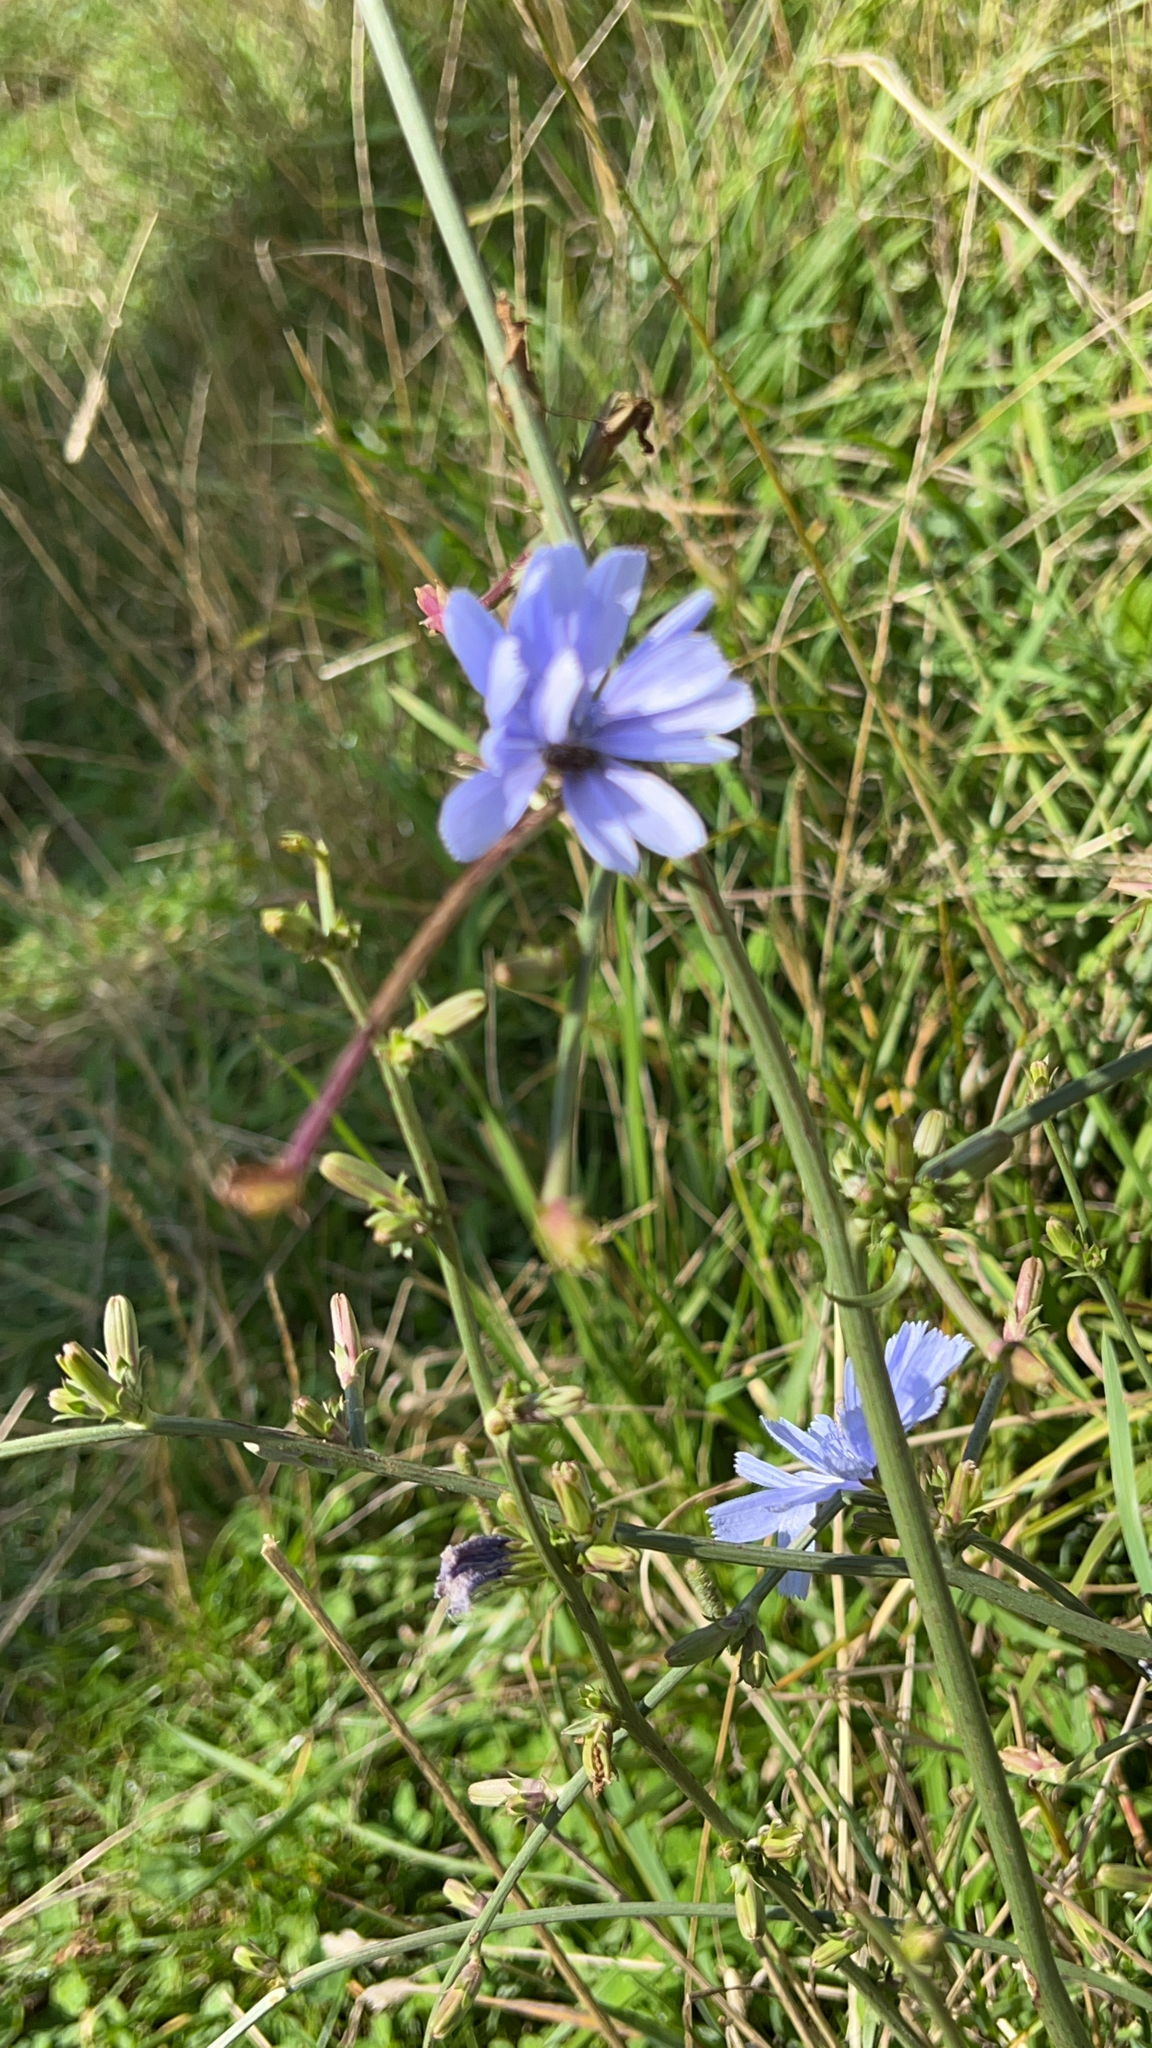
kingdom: Plantae
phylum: Tracheophyta
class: Magnoliopsida
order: Asterales
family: Asteraceae
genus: Cichorium
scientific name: Cichorium intybus
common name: Chicory
